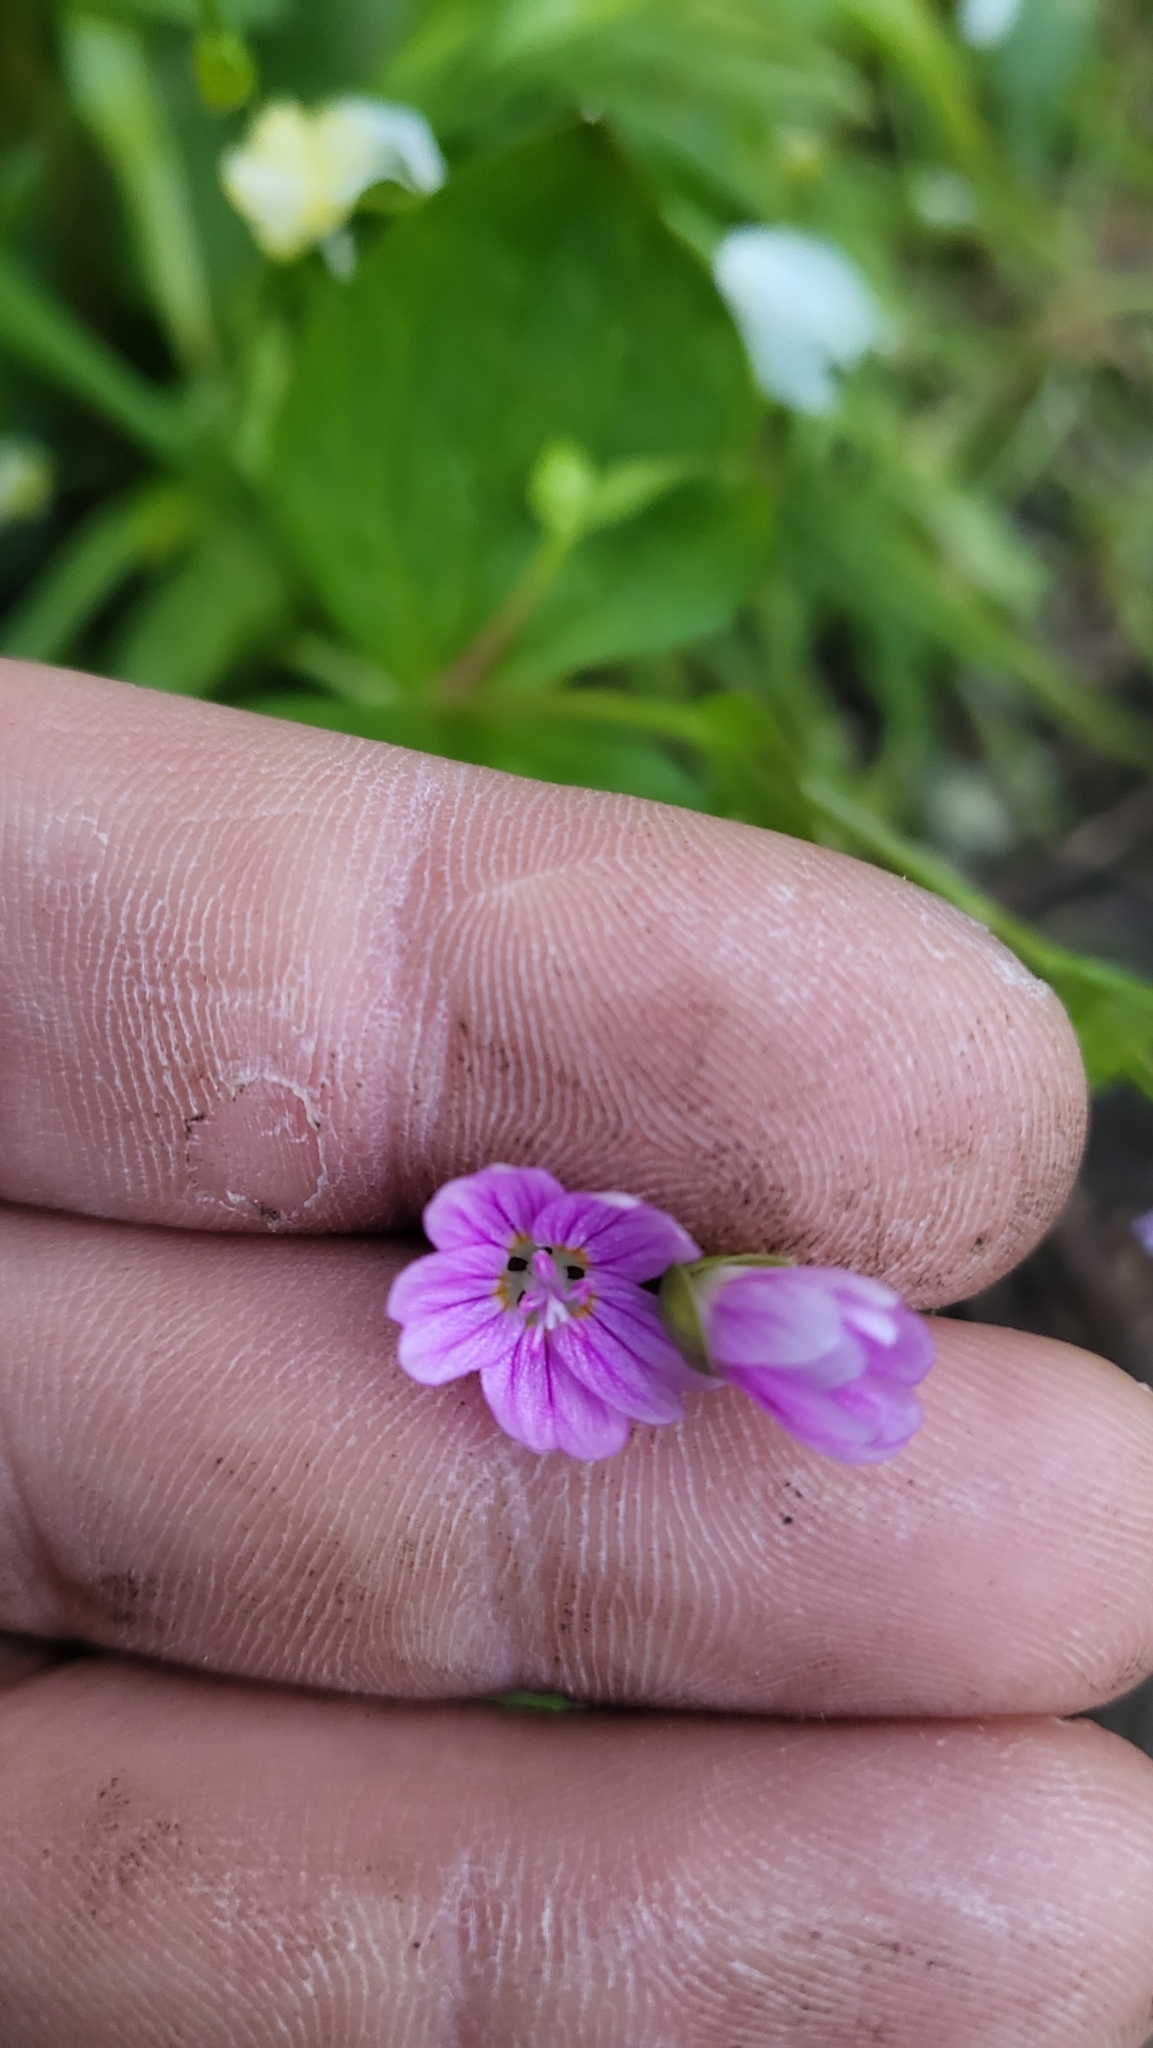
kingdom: Plantae
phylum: Tracheophyta
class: Magnoliopsida
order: Caryophyllales
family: Montiaceae
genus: Claytonia
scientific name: Claytonia sibirica
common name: Pink purslane
